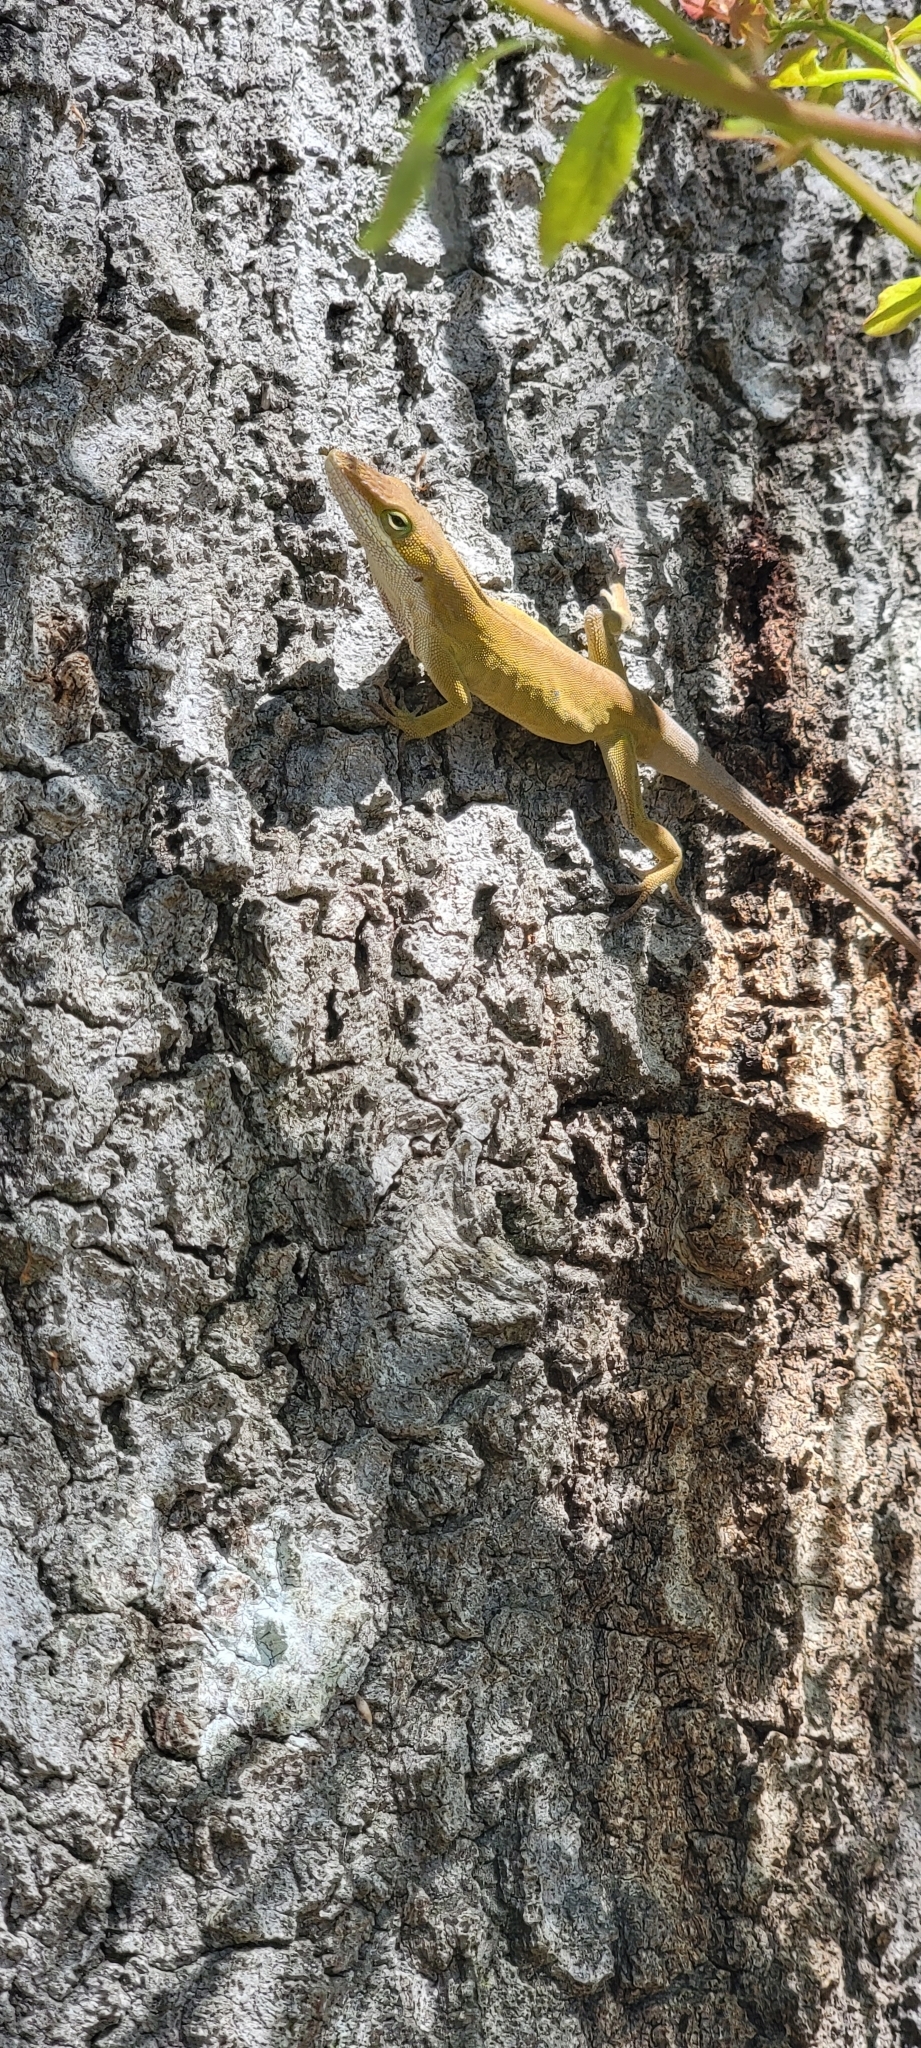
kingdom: Animalia
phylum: Chordata
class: Squamata
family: Dactyloidae
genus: Anolis
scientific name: Anolis carolinensis
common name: Green anole
